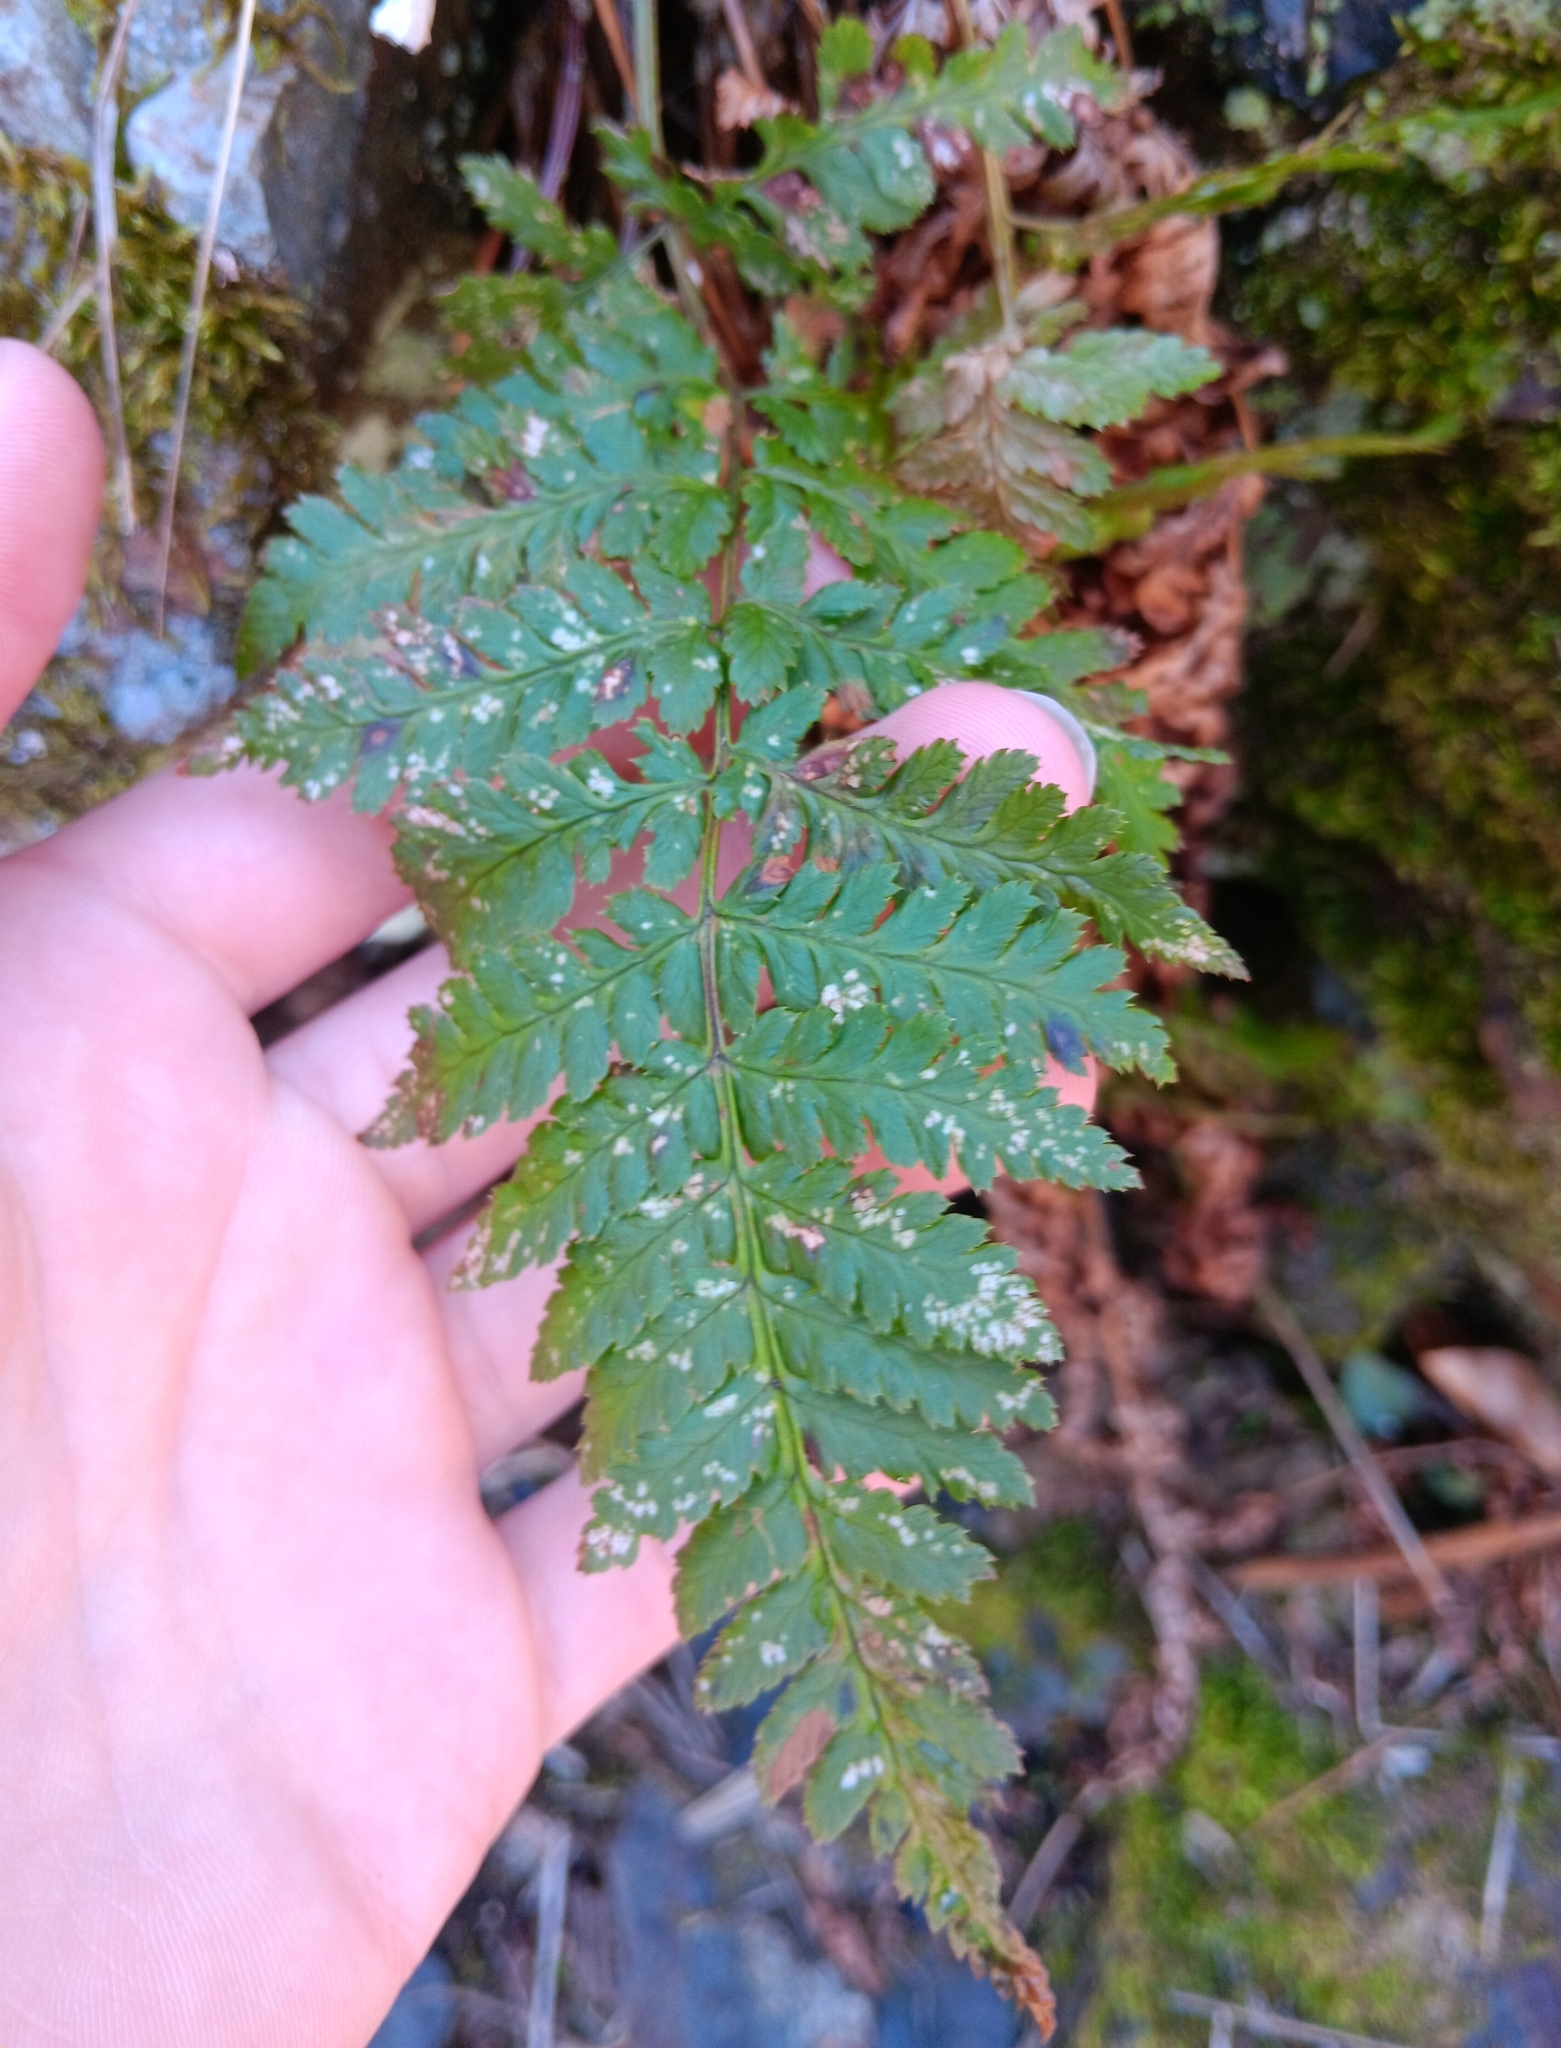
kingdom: Plantae
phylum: Tracheophyta
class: Polypodiopsida
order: Polypodiales
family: Dryopteridaceae
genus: Dryopteris
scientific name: Dryopteris intermedia
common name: Evergreen wood fern
